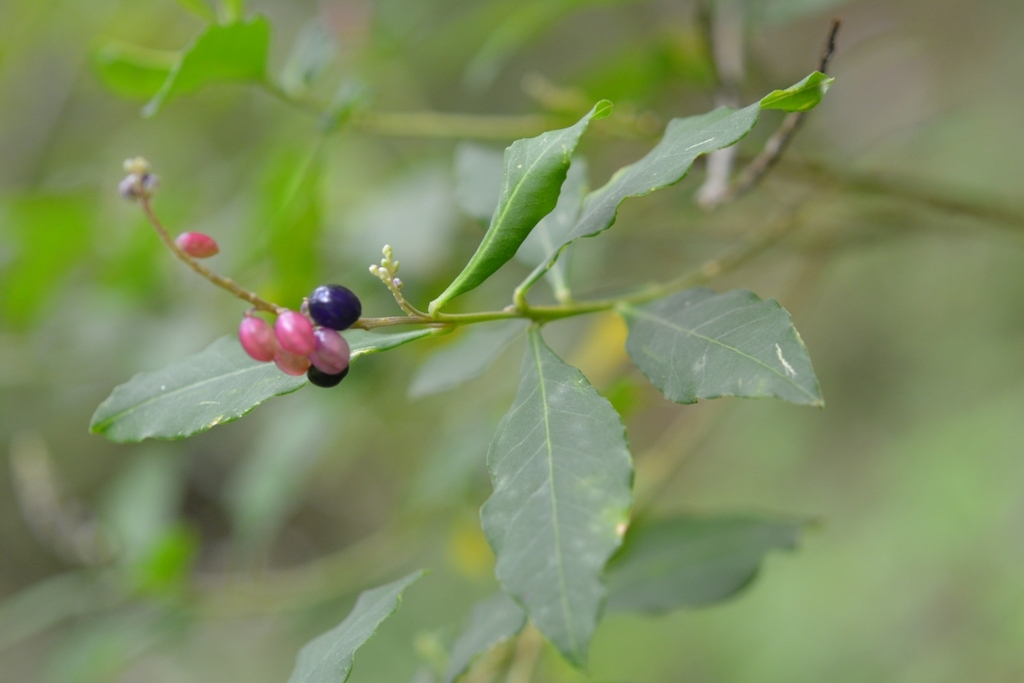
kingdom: Plantae
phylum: Tracheophyta
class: Magnoliopsida
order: Fabales
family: Polygalaceae
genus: Monnina
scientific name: Monnina xalapensis
